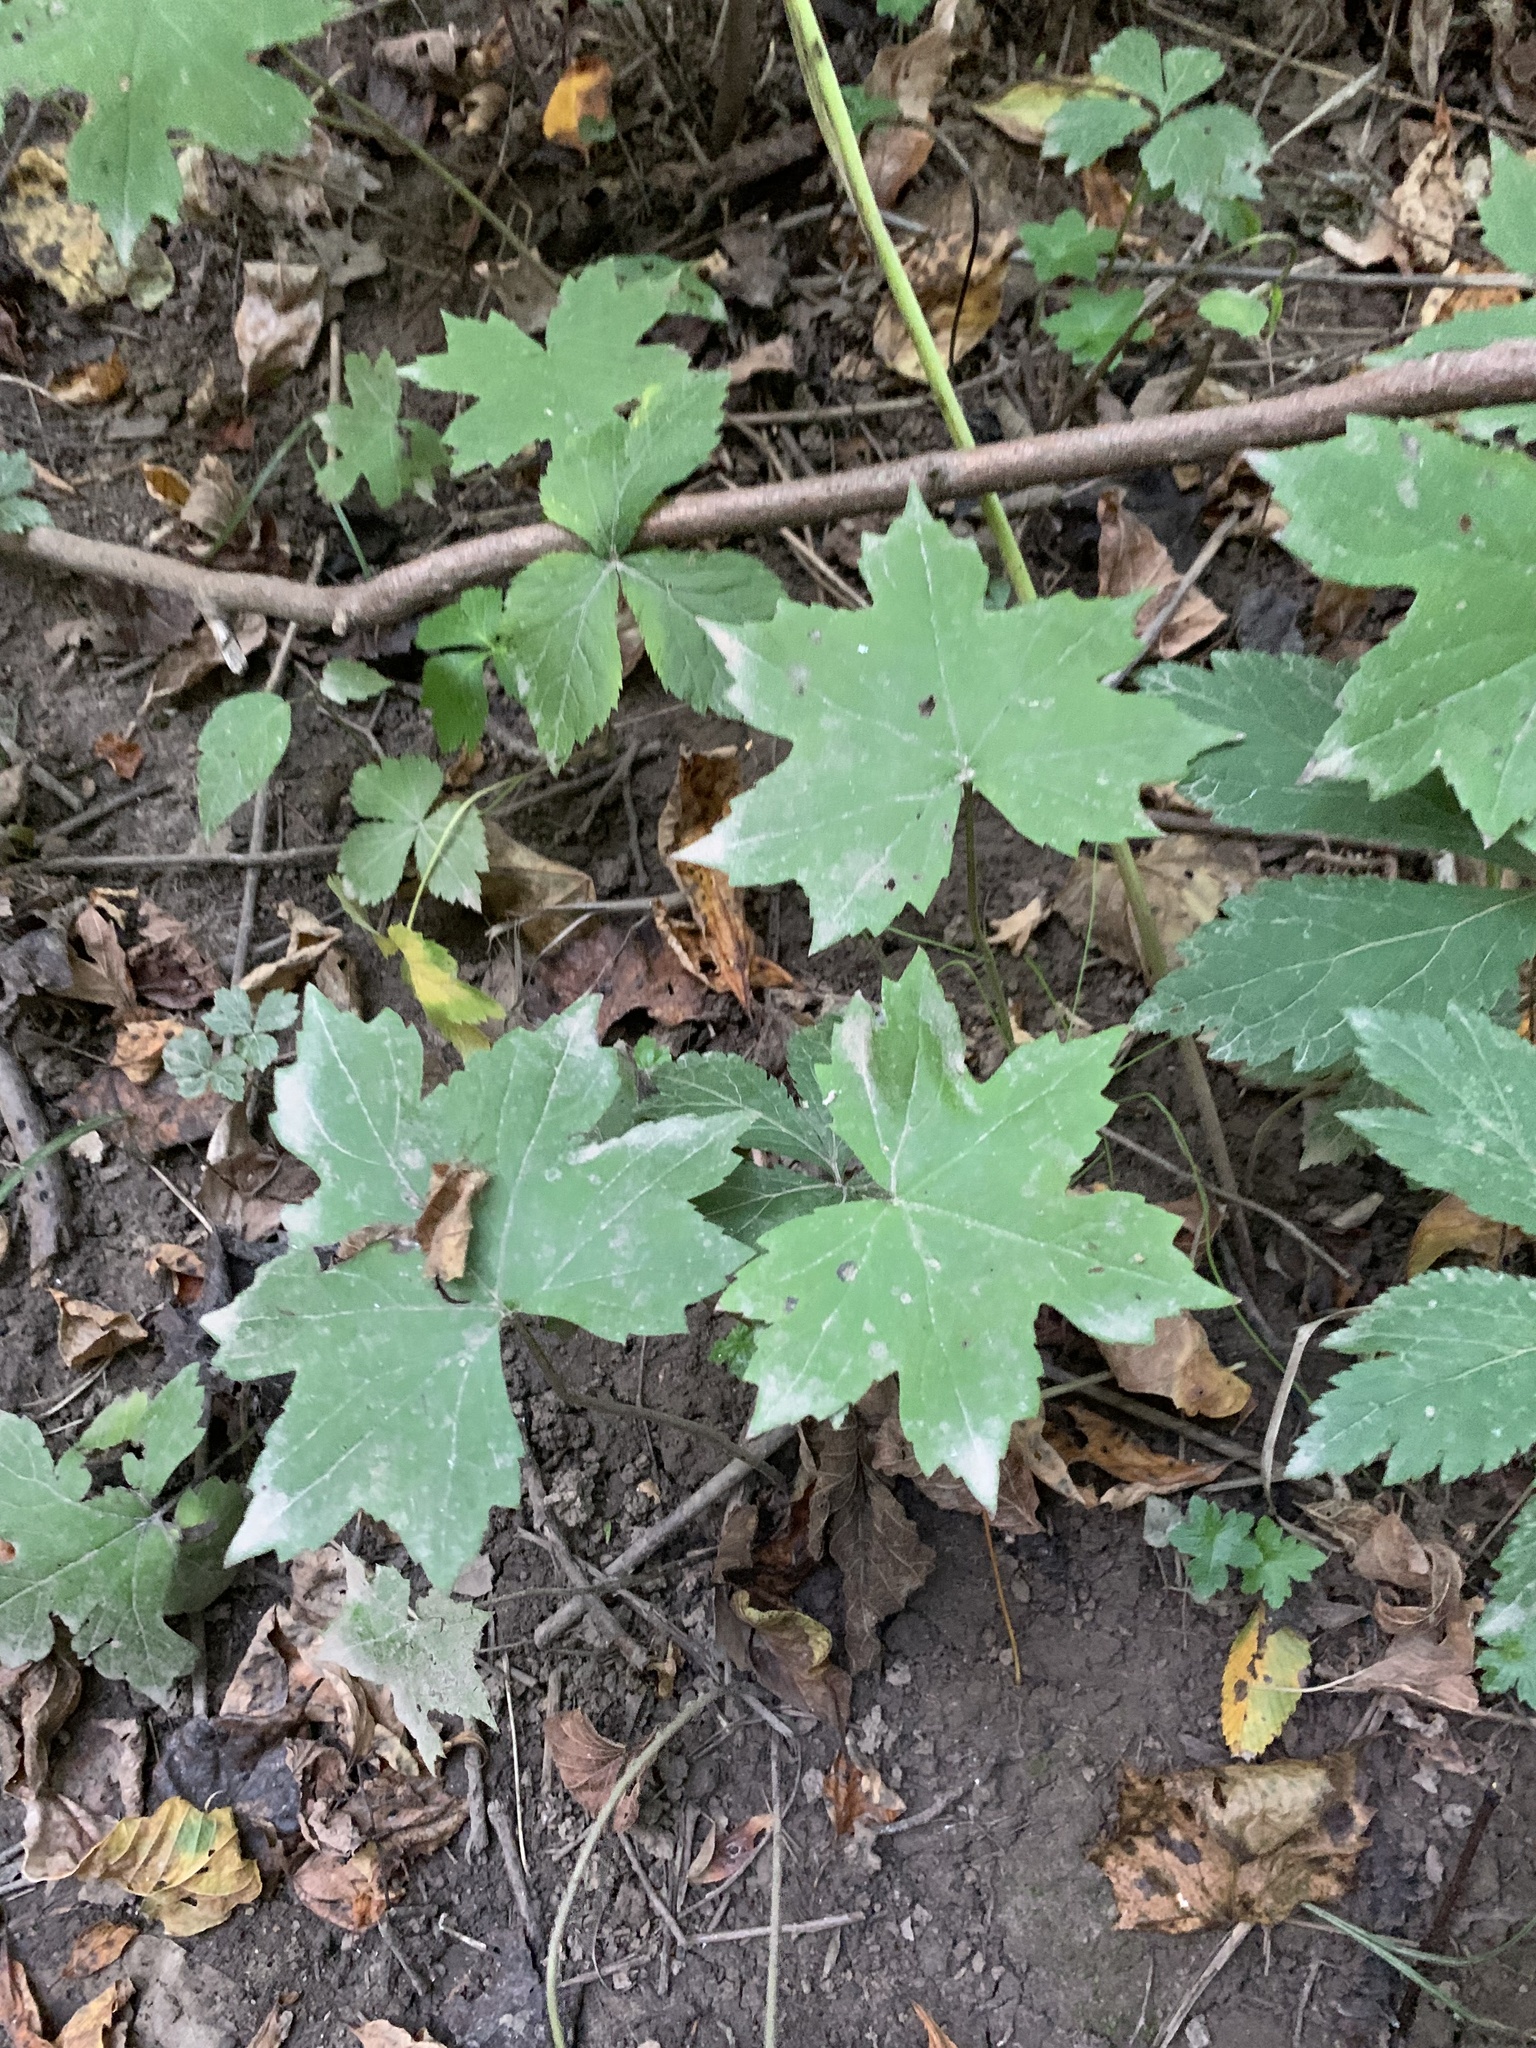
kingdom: Plantae
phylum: Tracheophyta
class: Magnoliopsida
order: Boraginales
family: Hydrophyllaceae
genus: Hydrophyllum
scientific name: Hydrophyllum canadense
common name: Canada waterleaf
